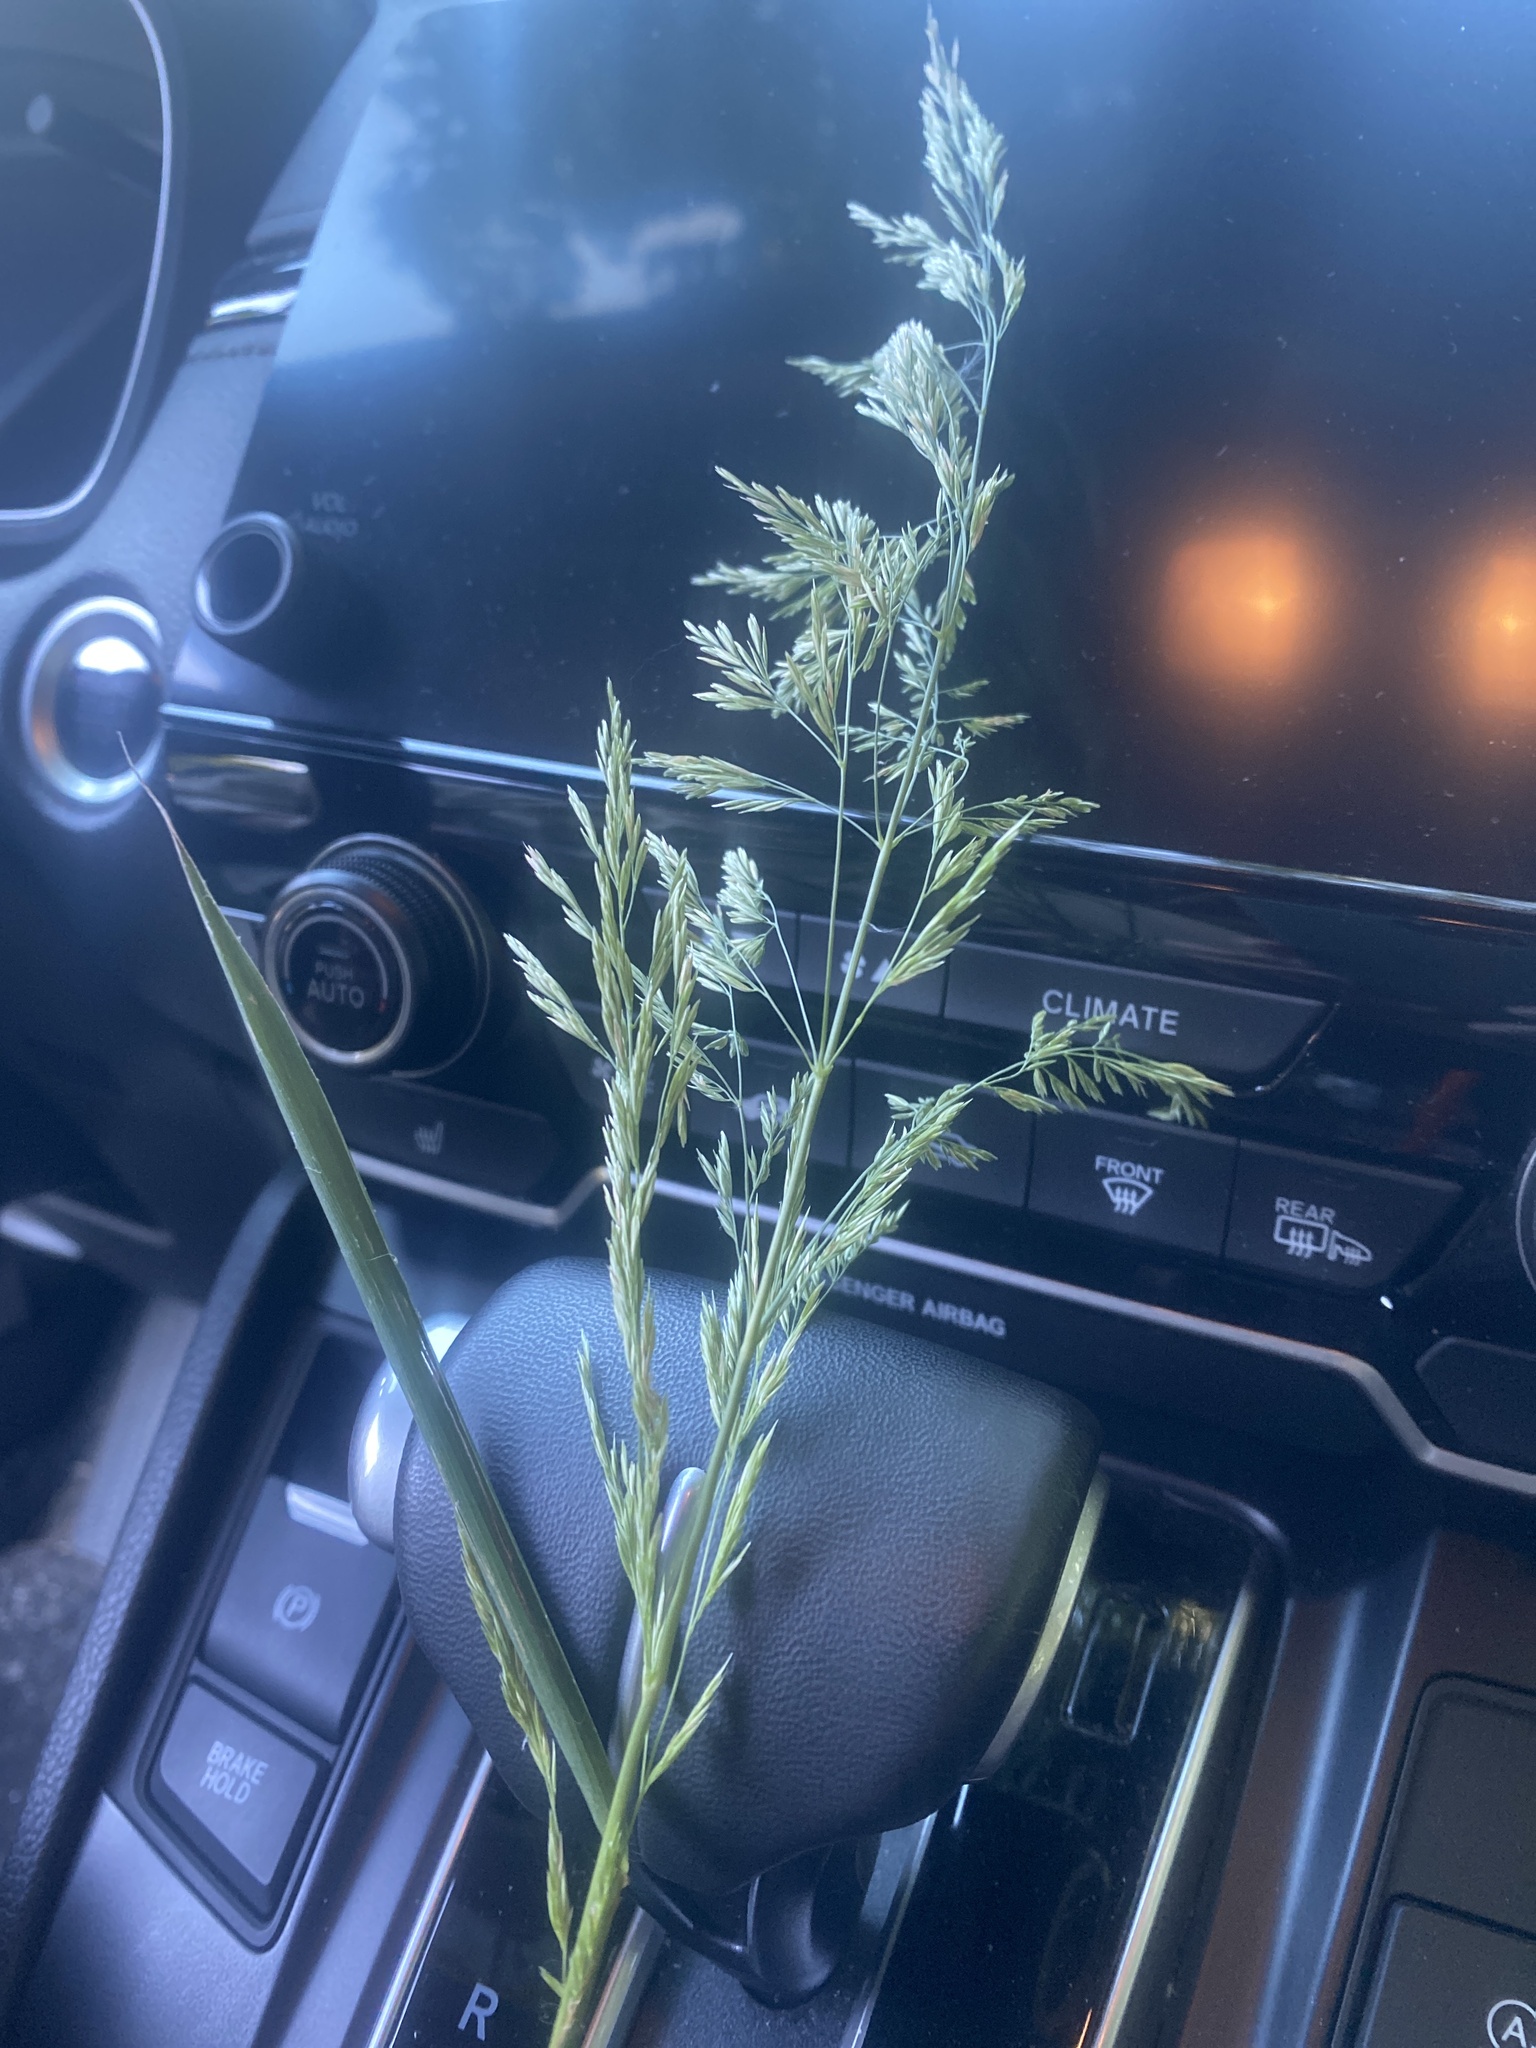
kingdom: Plantae
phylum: Tracheophyta
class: Liliopsida
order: Poales
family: Poaceae
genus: Cinna
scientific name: Cinna arundinacea
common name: Stout woodreed
